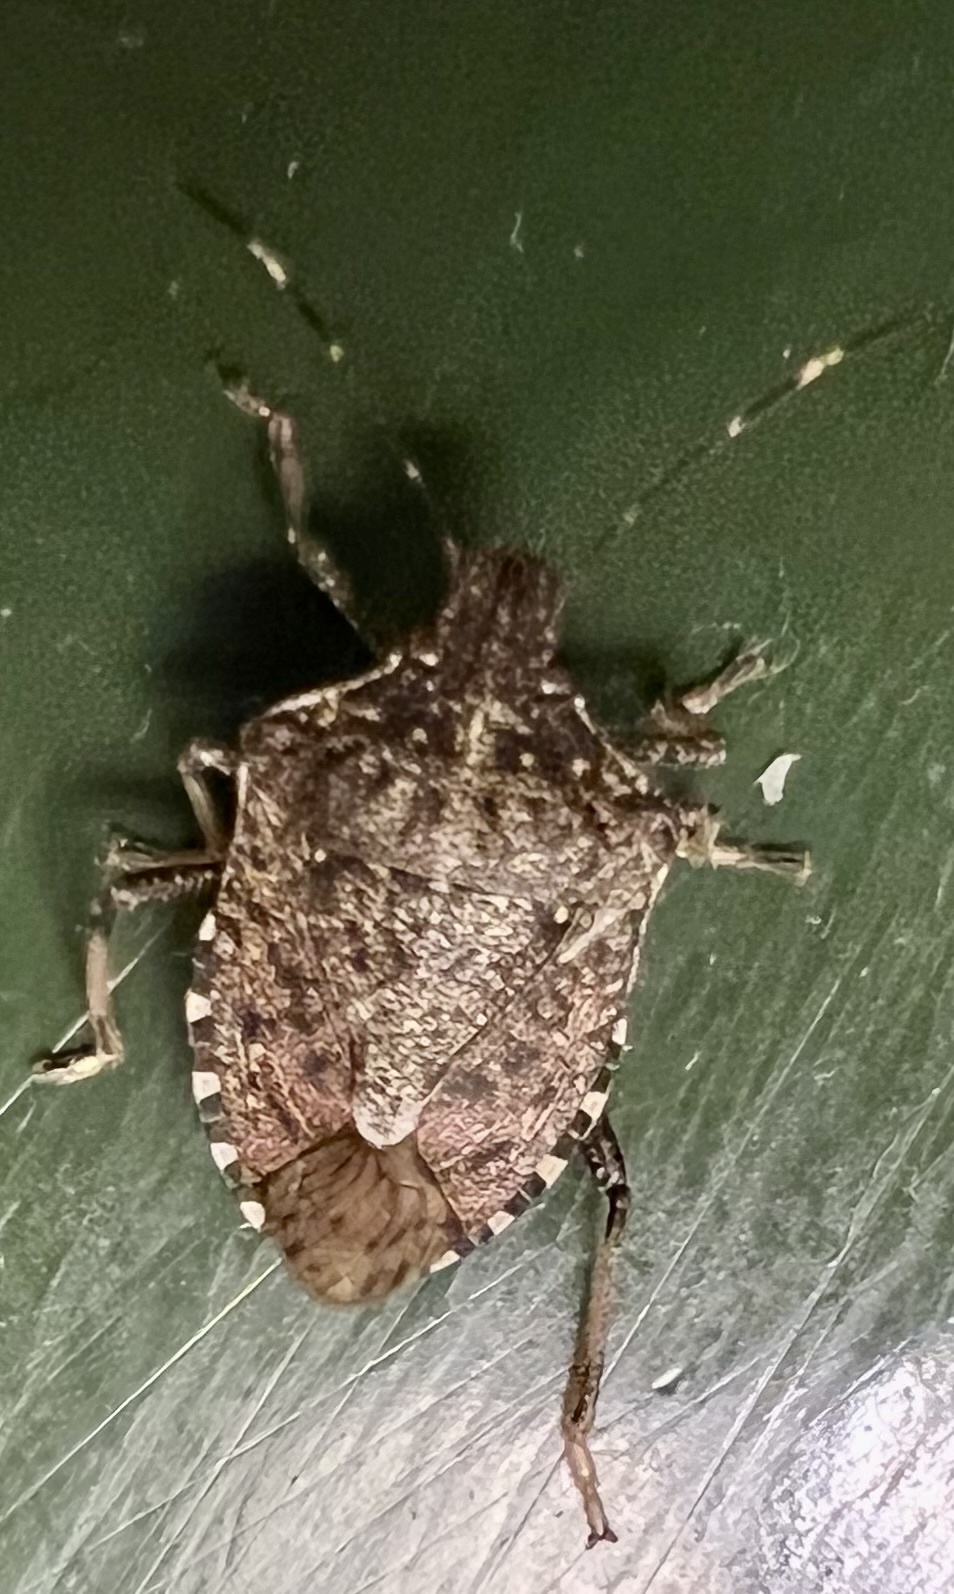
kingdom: Animalia
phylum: Arthropoda
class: Insecta
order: Hemiptera
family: Pentatomidae
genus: Halyomorpha
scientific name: Halyomorpha halys
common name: Brown marmorated stink bug
